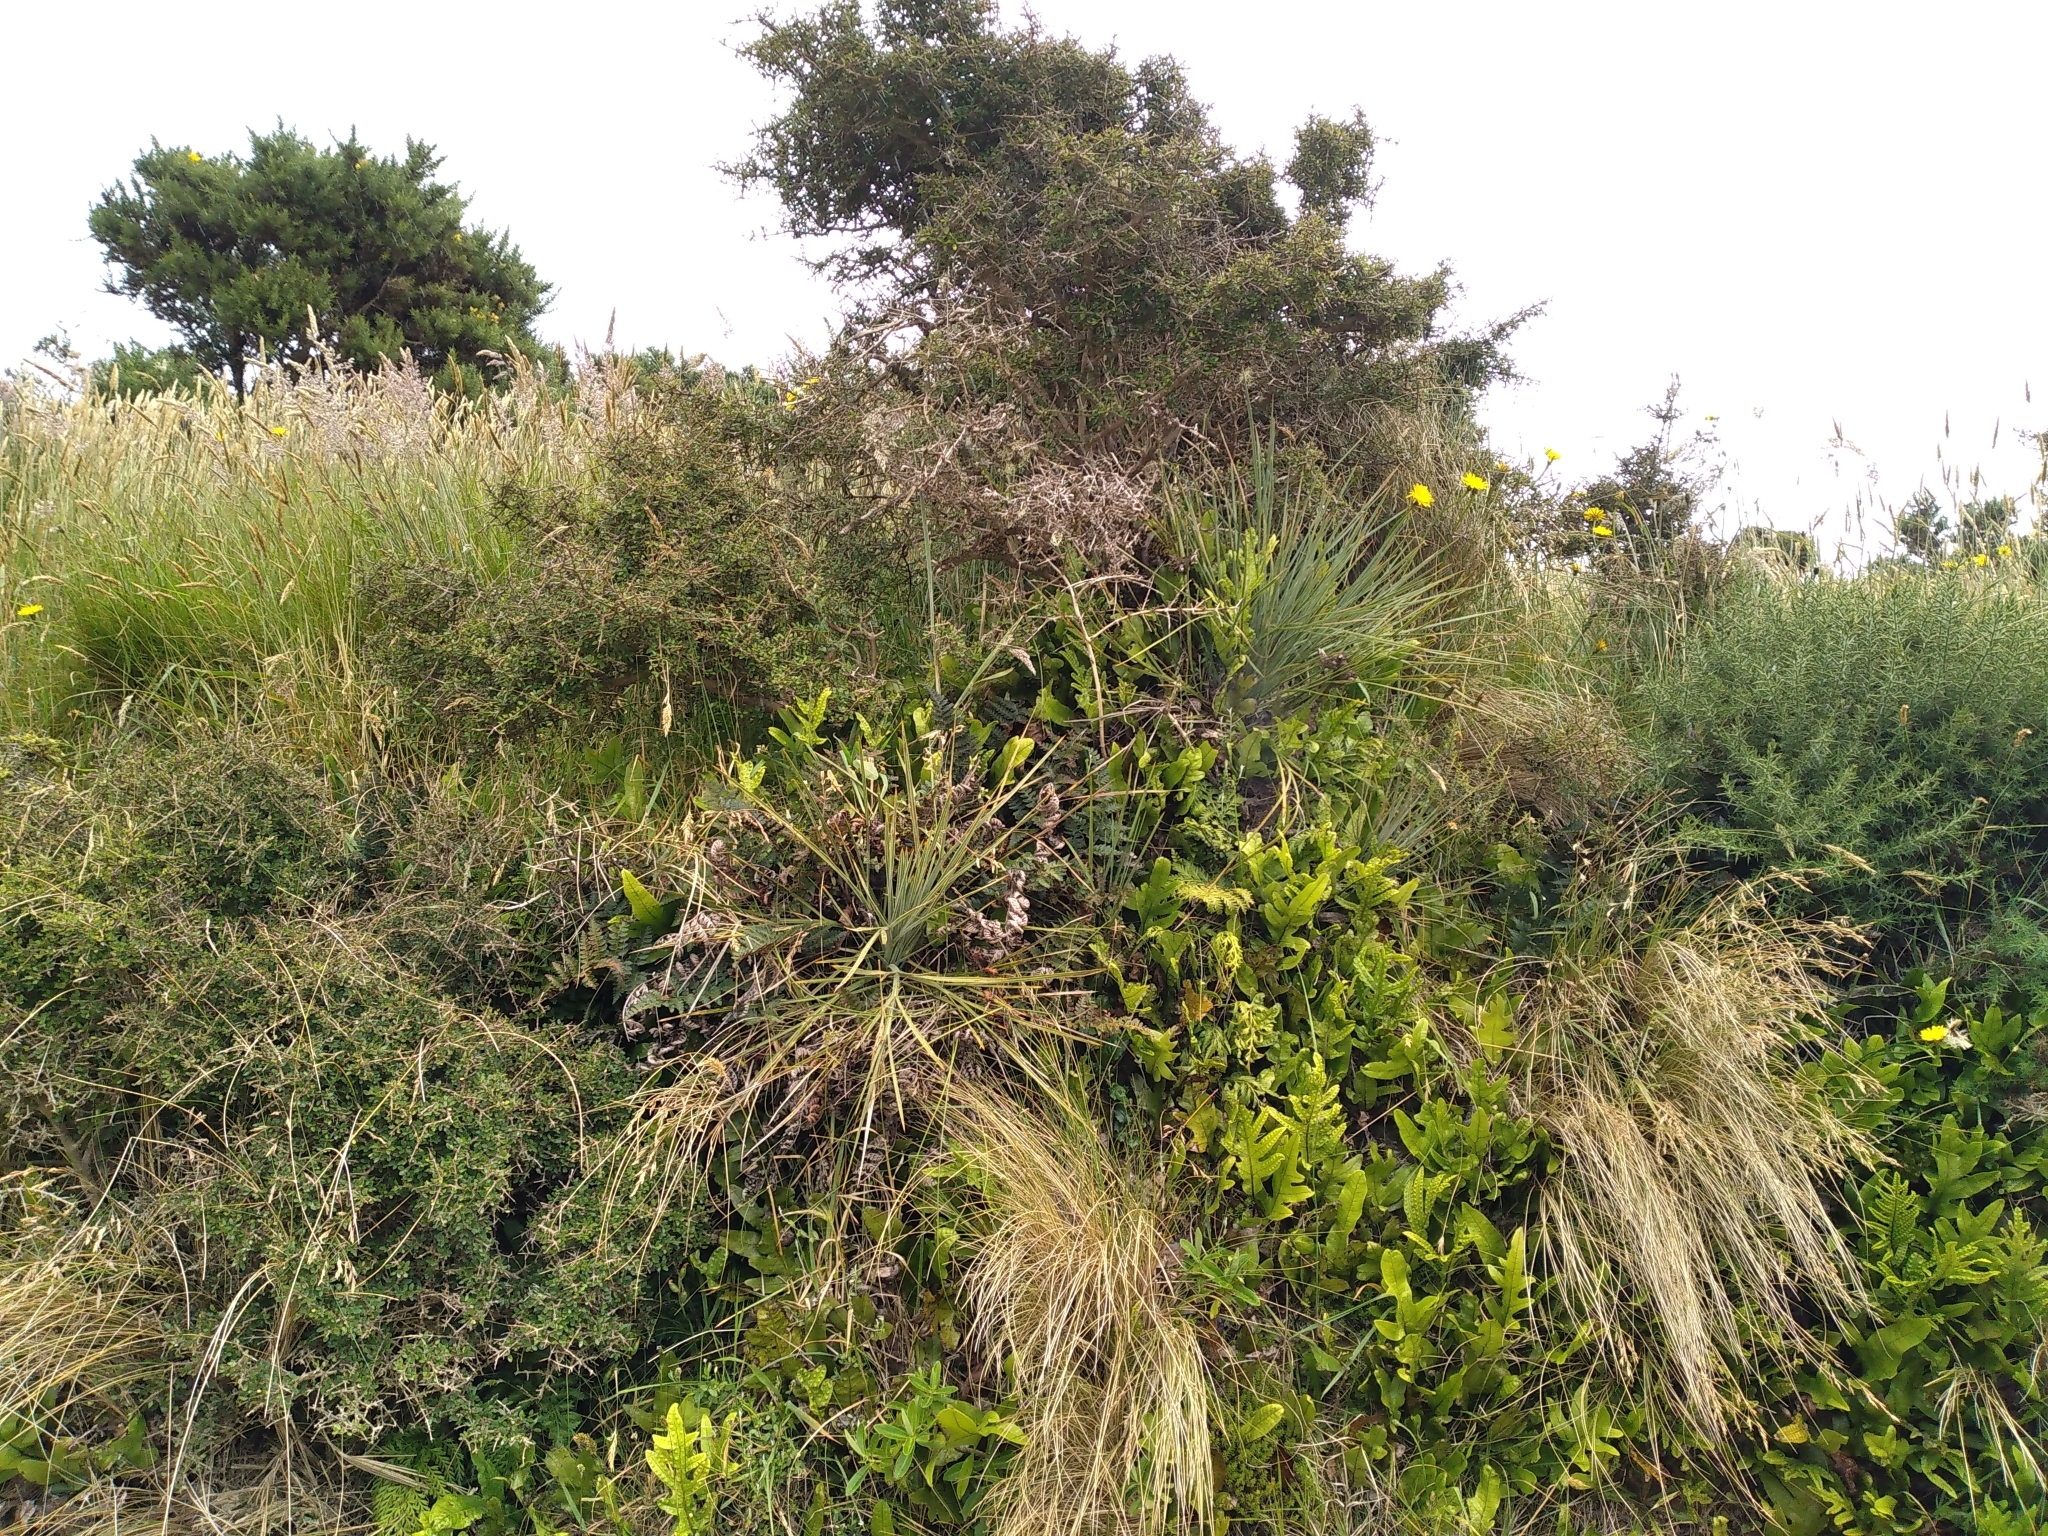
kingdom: Plantae
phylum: Tracheophyta
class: Magnoliopsida
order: Apiales
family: Apiaceae
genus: Aciphylla
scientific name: Aciphylla squarrosa
